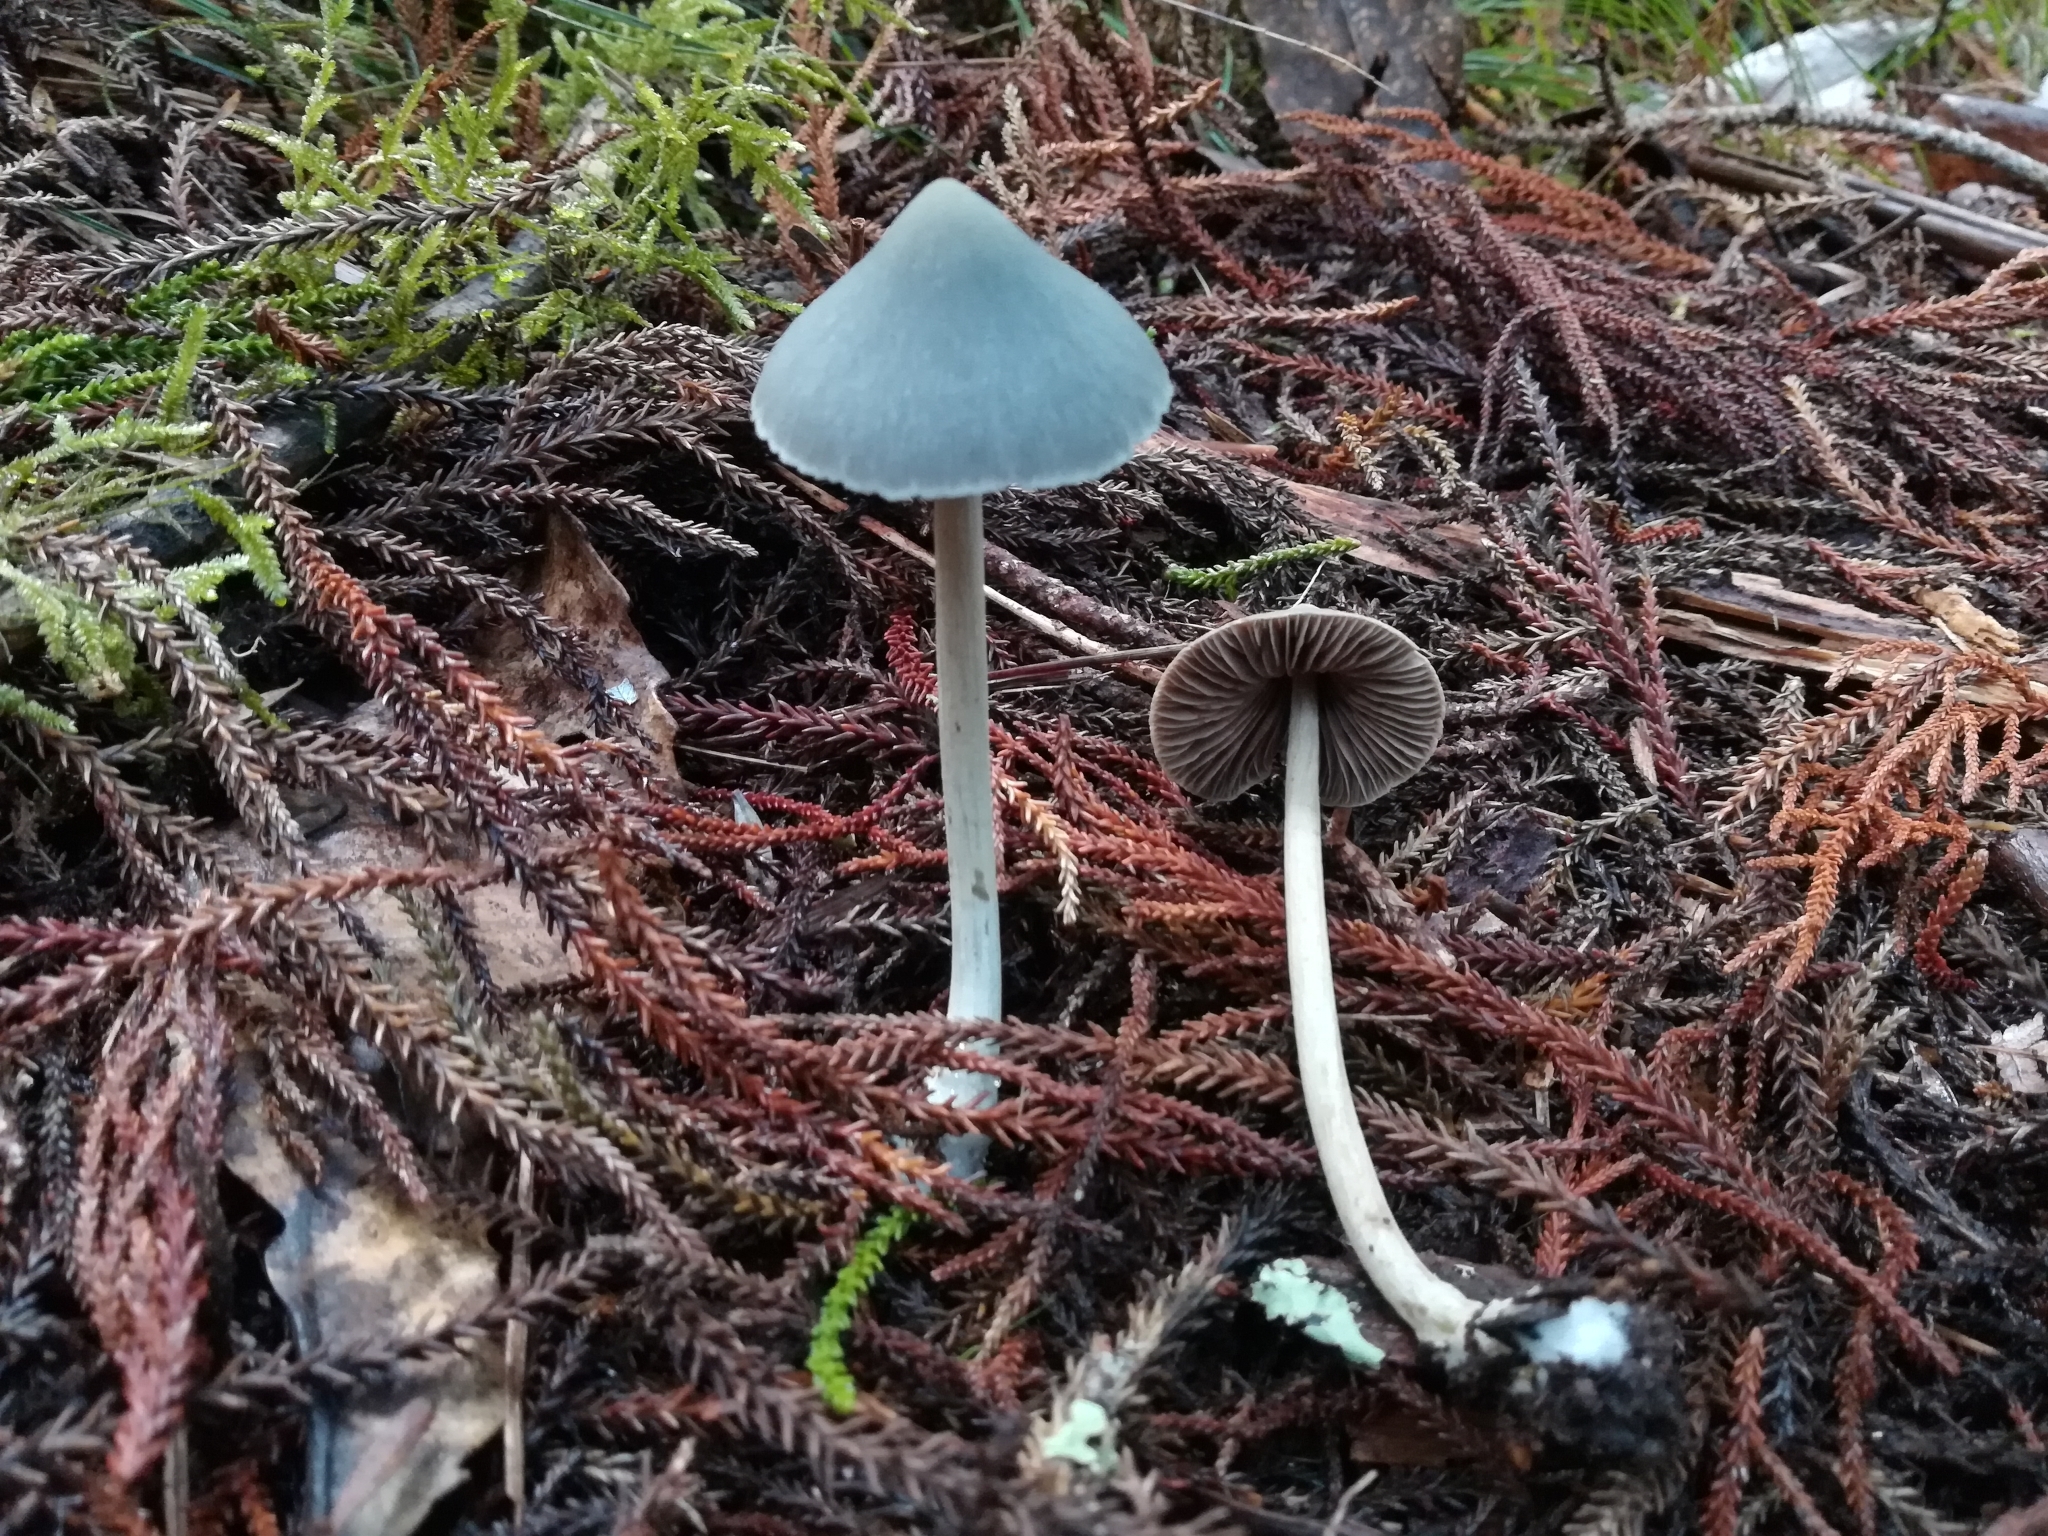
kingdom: Fungi
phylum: Basidiomycota
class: Agaricomycetes
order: Agaricales
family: Entolomataceae
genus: Entoloma
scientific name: Entoloma canoconicum
